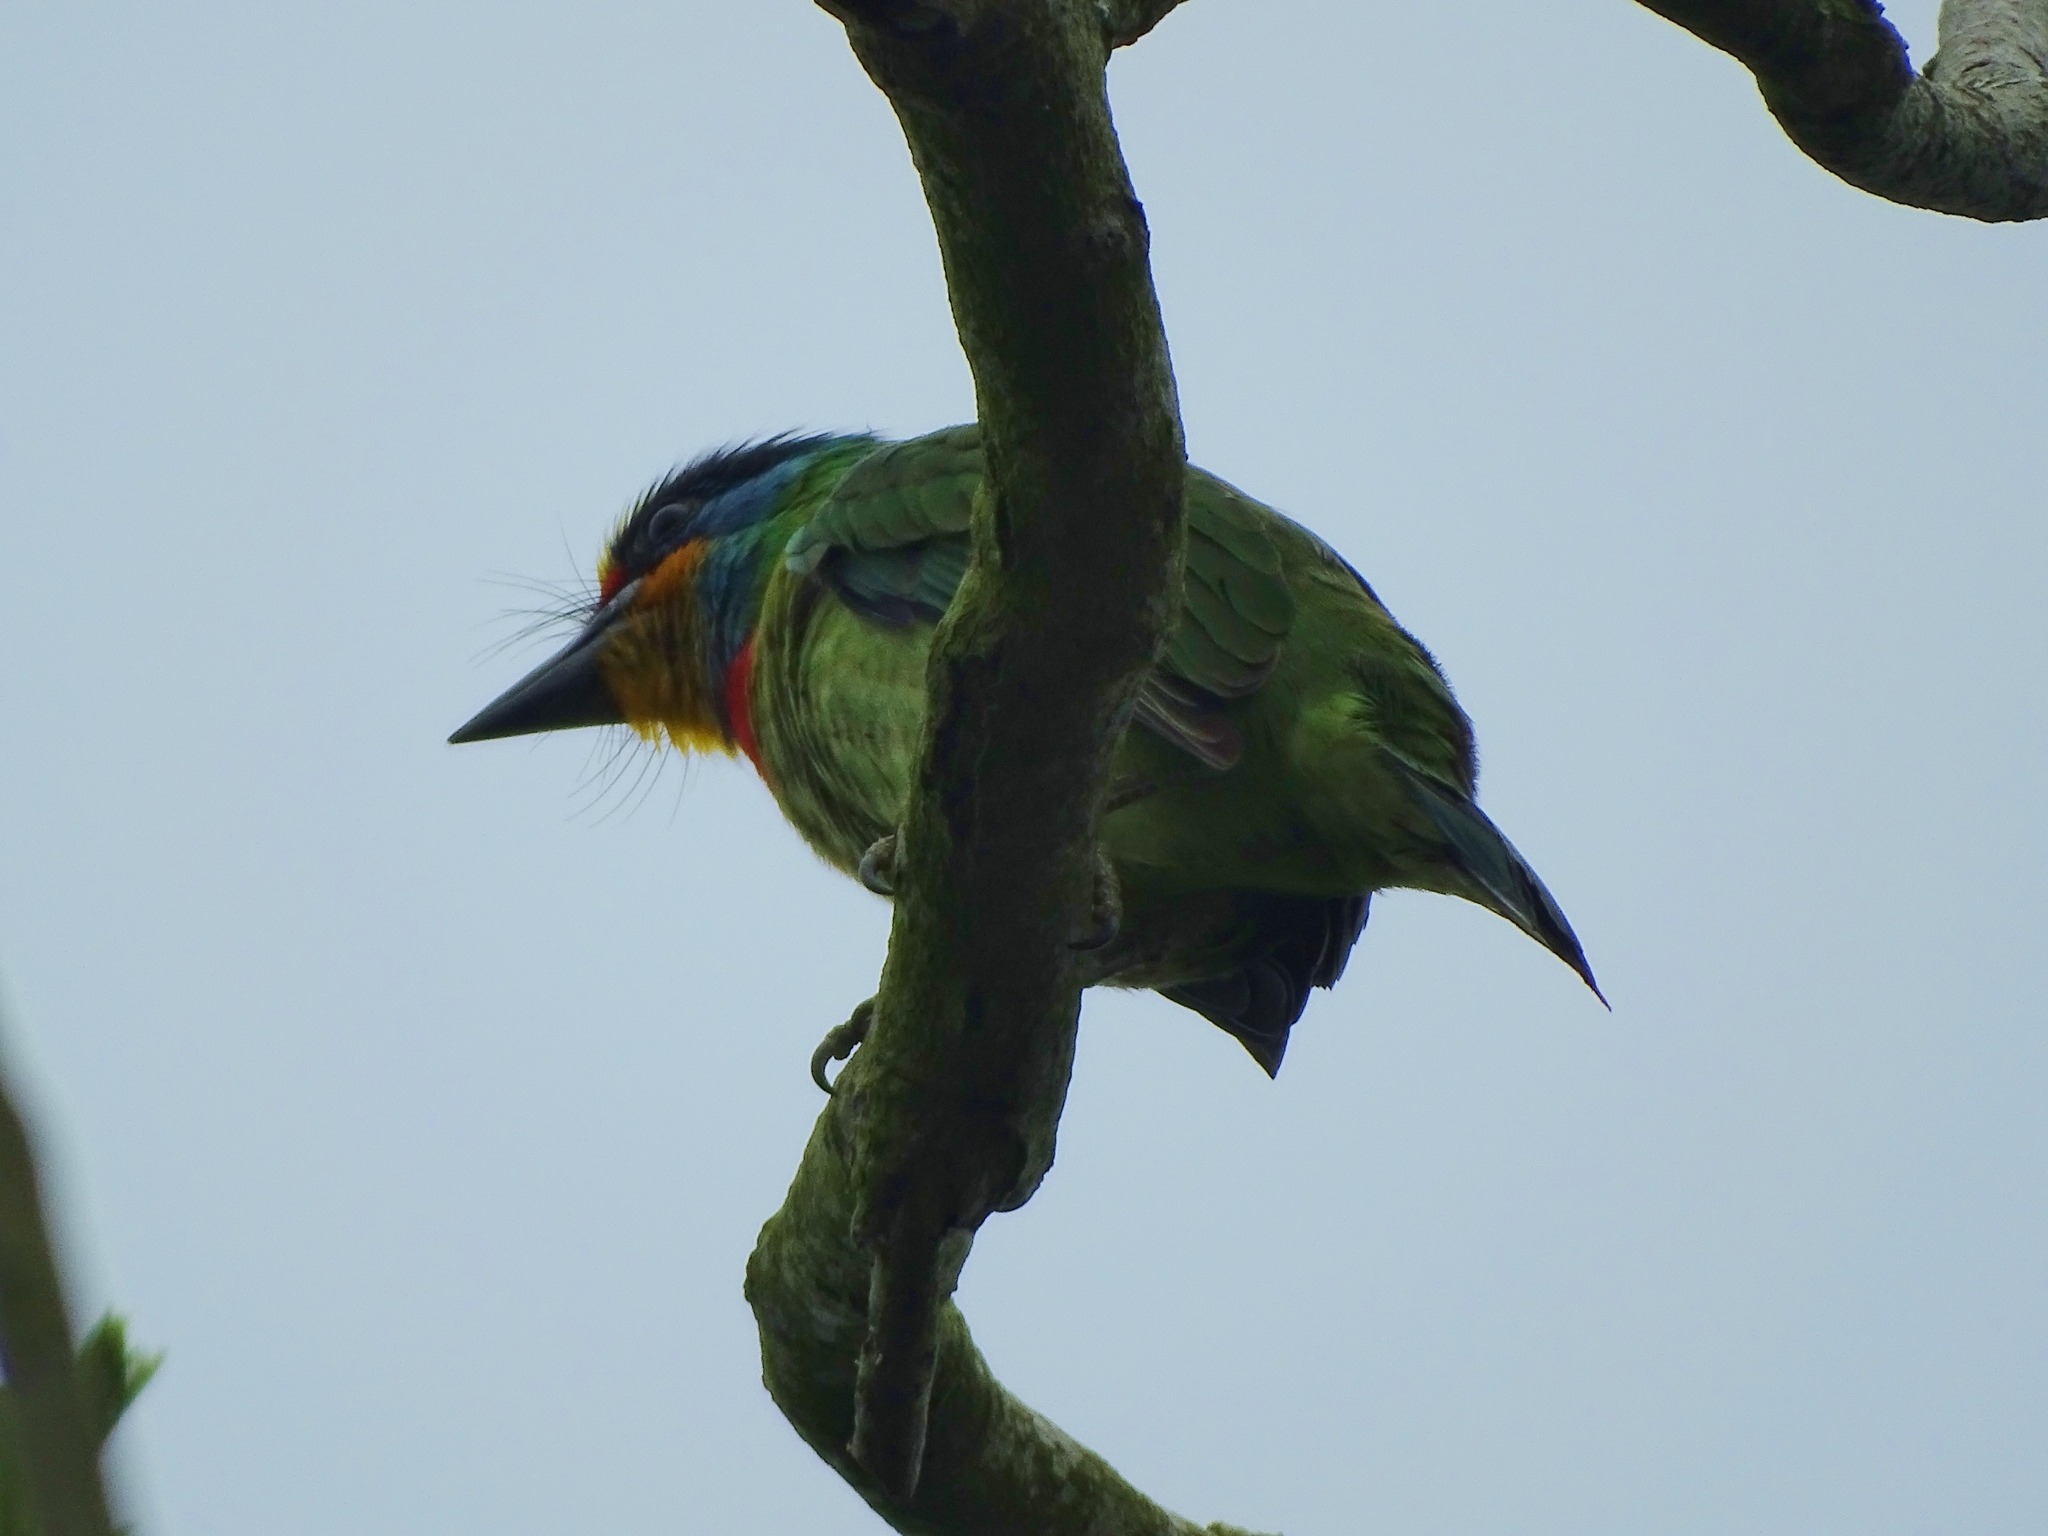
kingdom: Animalia
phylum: Chordata
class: Aves
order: Piciformes
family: Megalaimidae
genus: Psilopogon
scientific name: Psilopogon nuchalis
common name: Taiwan barbet
